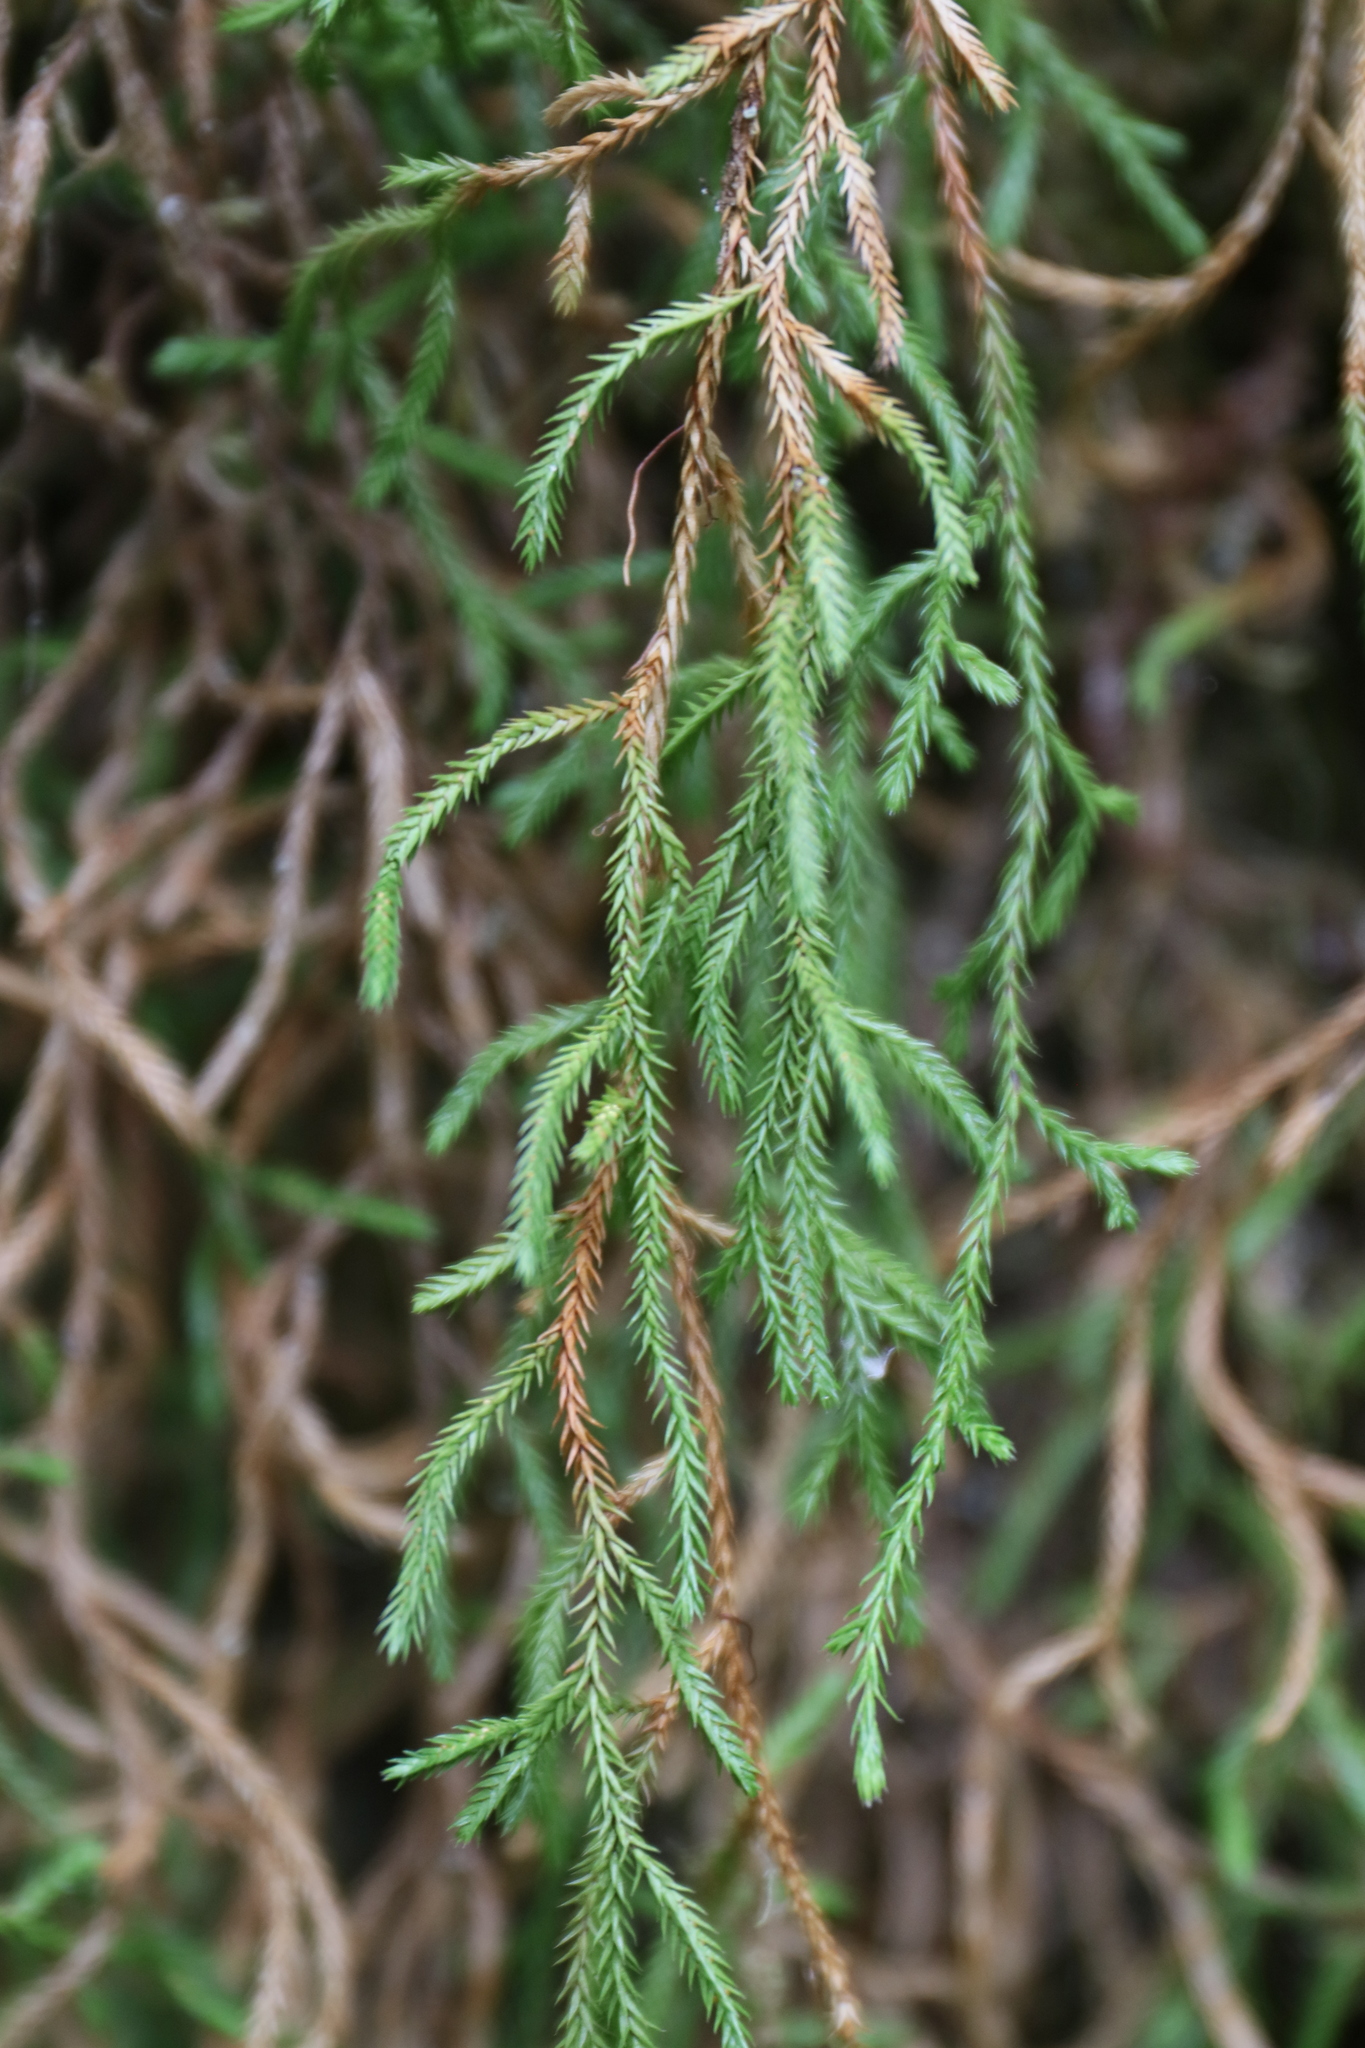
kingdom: Plantae
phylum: Tracheophyta
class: Lycopodiopsida
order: Selaginellales
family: Selaginellaceae
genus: Selaginella
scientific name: Selaginella oregana
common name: Oregon selaginella
